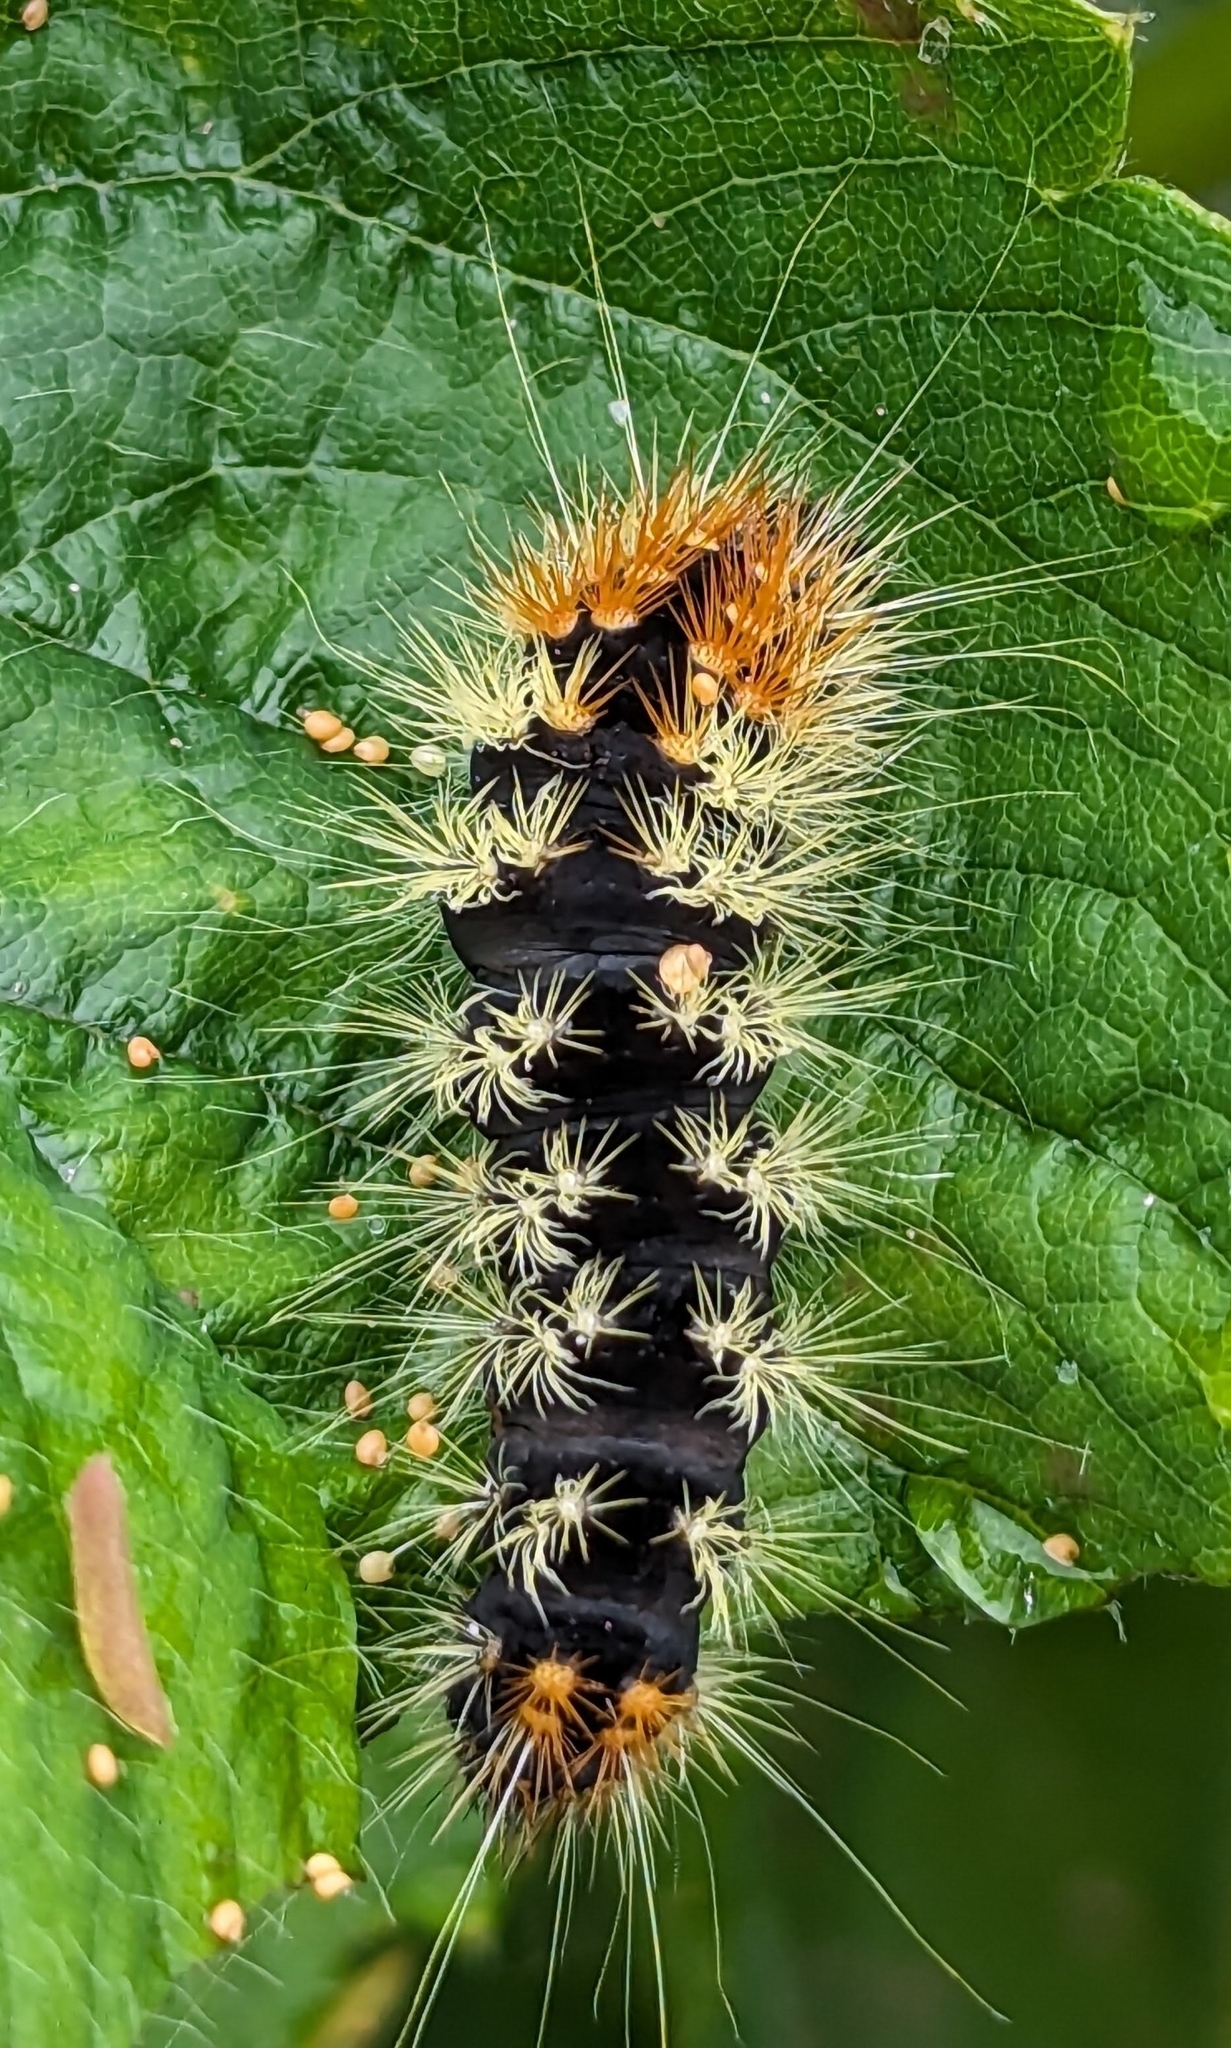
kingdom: Animalia
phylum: Arthropoda
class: Insecta
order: Lepidoptera
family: Noctuidae
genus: Acronicta
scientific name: Acronicta impressa
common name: Impressed dagger
